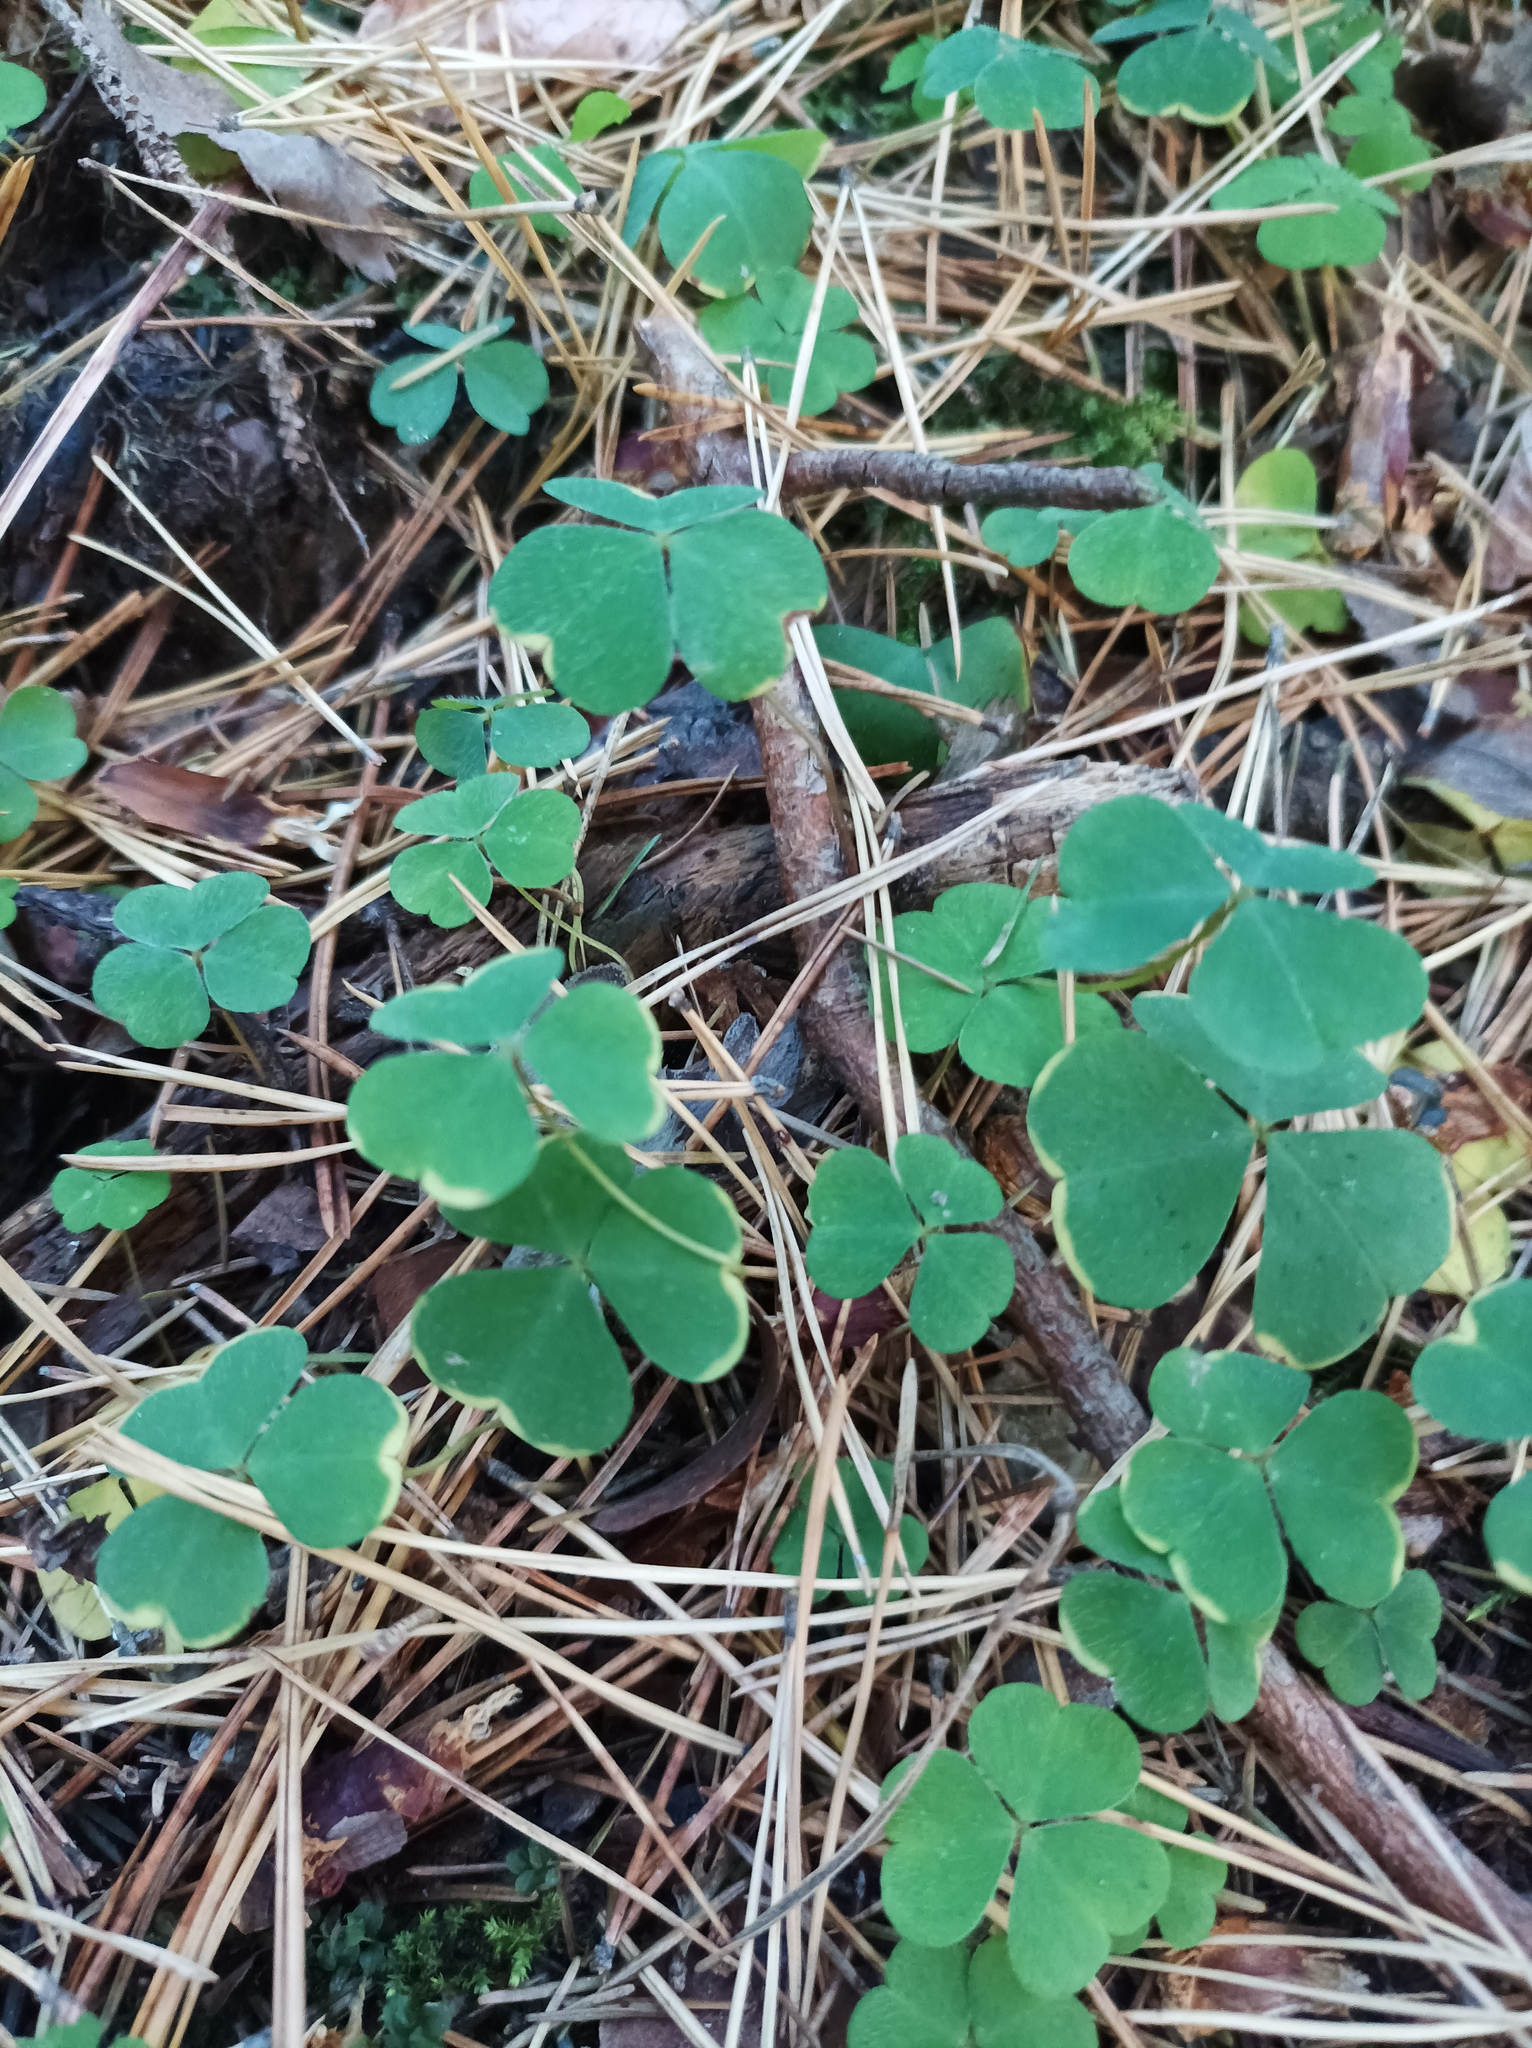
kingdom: Plantae
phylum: Tracheophyta
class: Magnoliopsida
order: Oxalidales
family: Oxalidaceae
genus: Oxalis
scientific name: Oxalis acetosella
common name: Wood-sorrel
